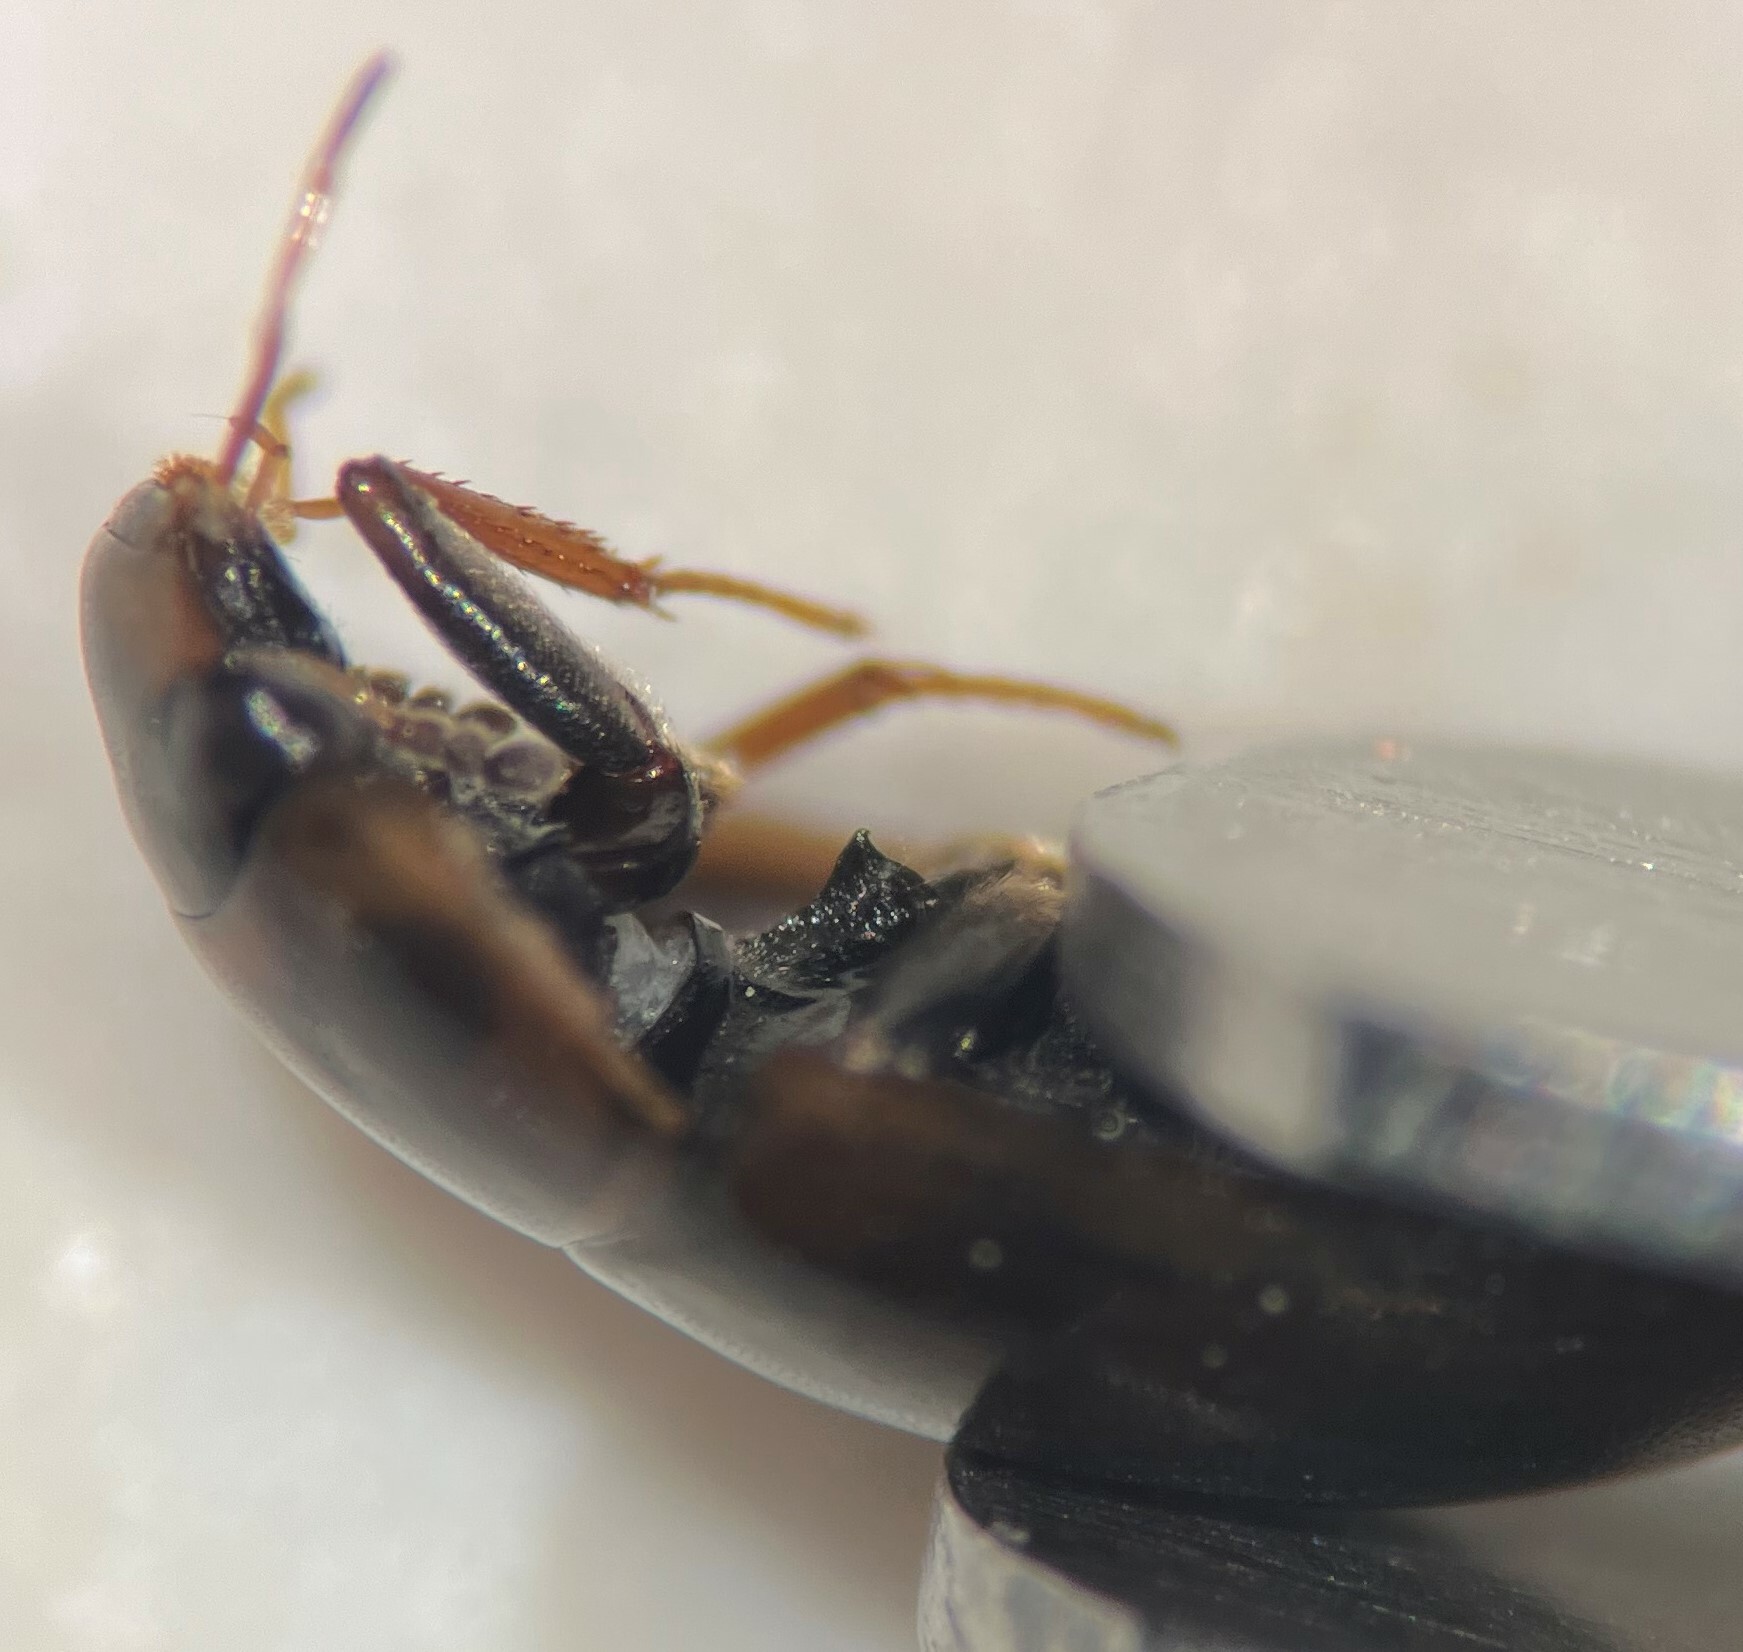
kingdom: Animalia
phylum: Arthropoda
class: Insecta
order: Coleoptera
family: Hydrophilidae
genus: Enochrus
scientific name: Enochrus hamiltoni
